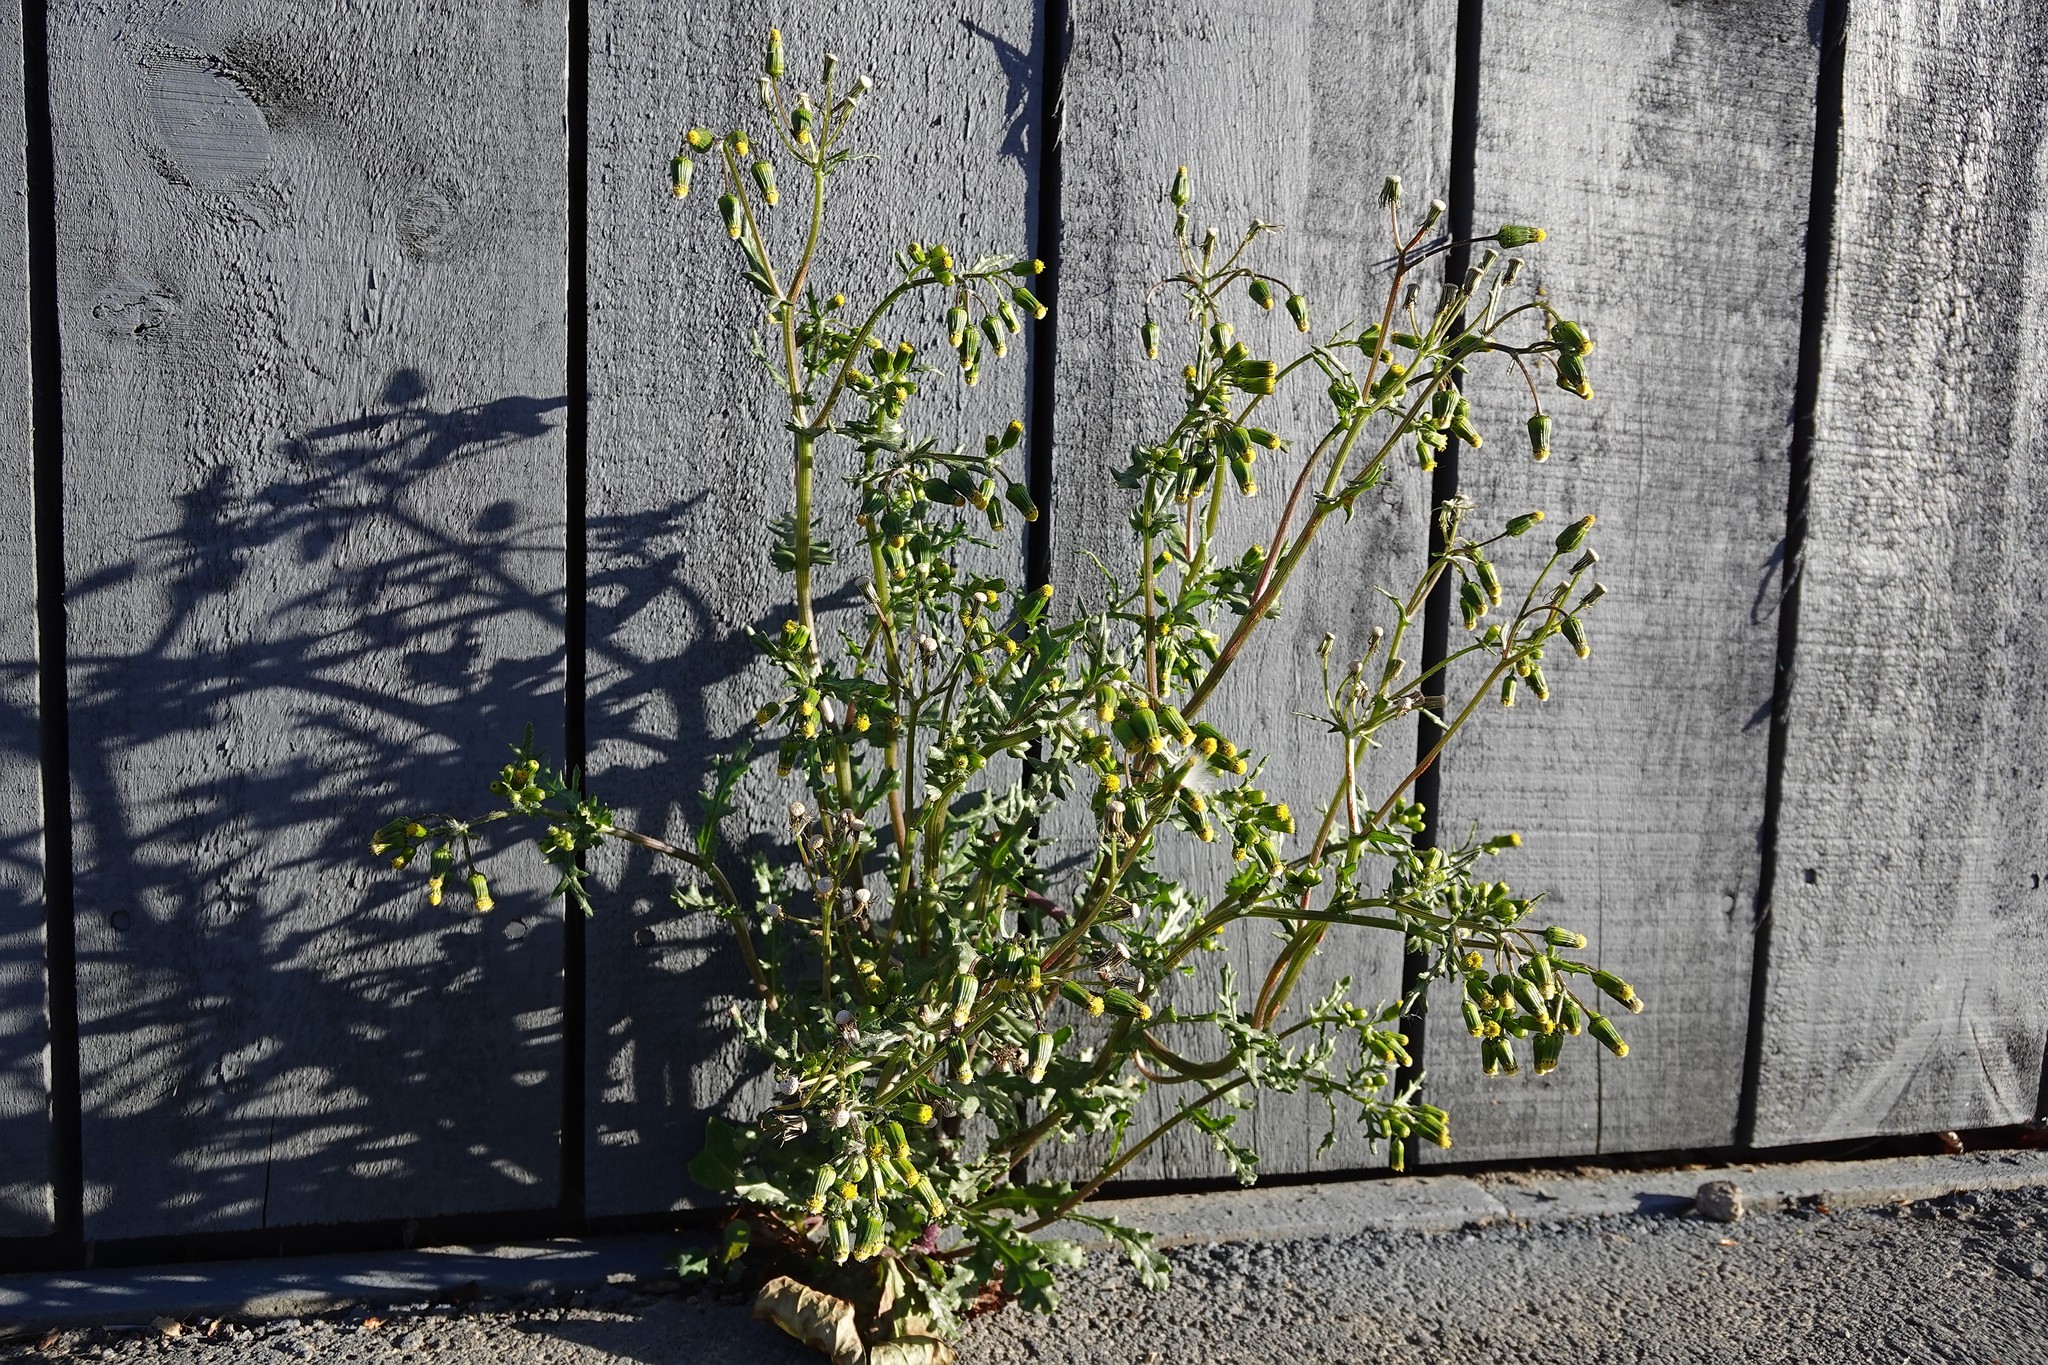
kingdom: Plantae
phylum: Tracheophyta
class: Magnoliopsida
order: Asterales
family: Asteraceae
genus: Senecio
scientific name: Senecio vulgaris
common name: Old-man-in-the-spring
